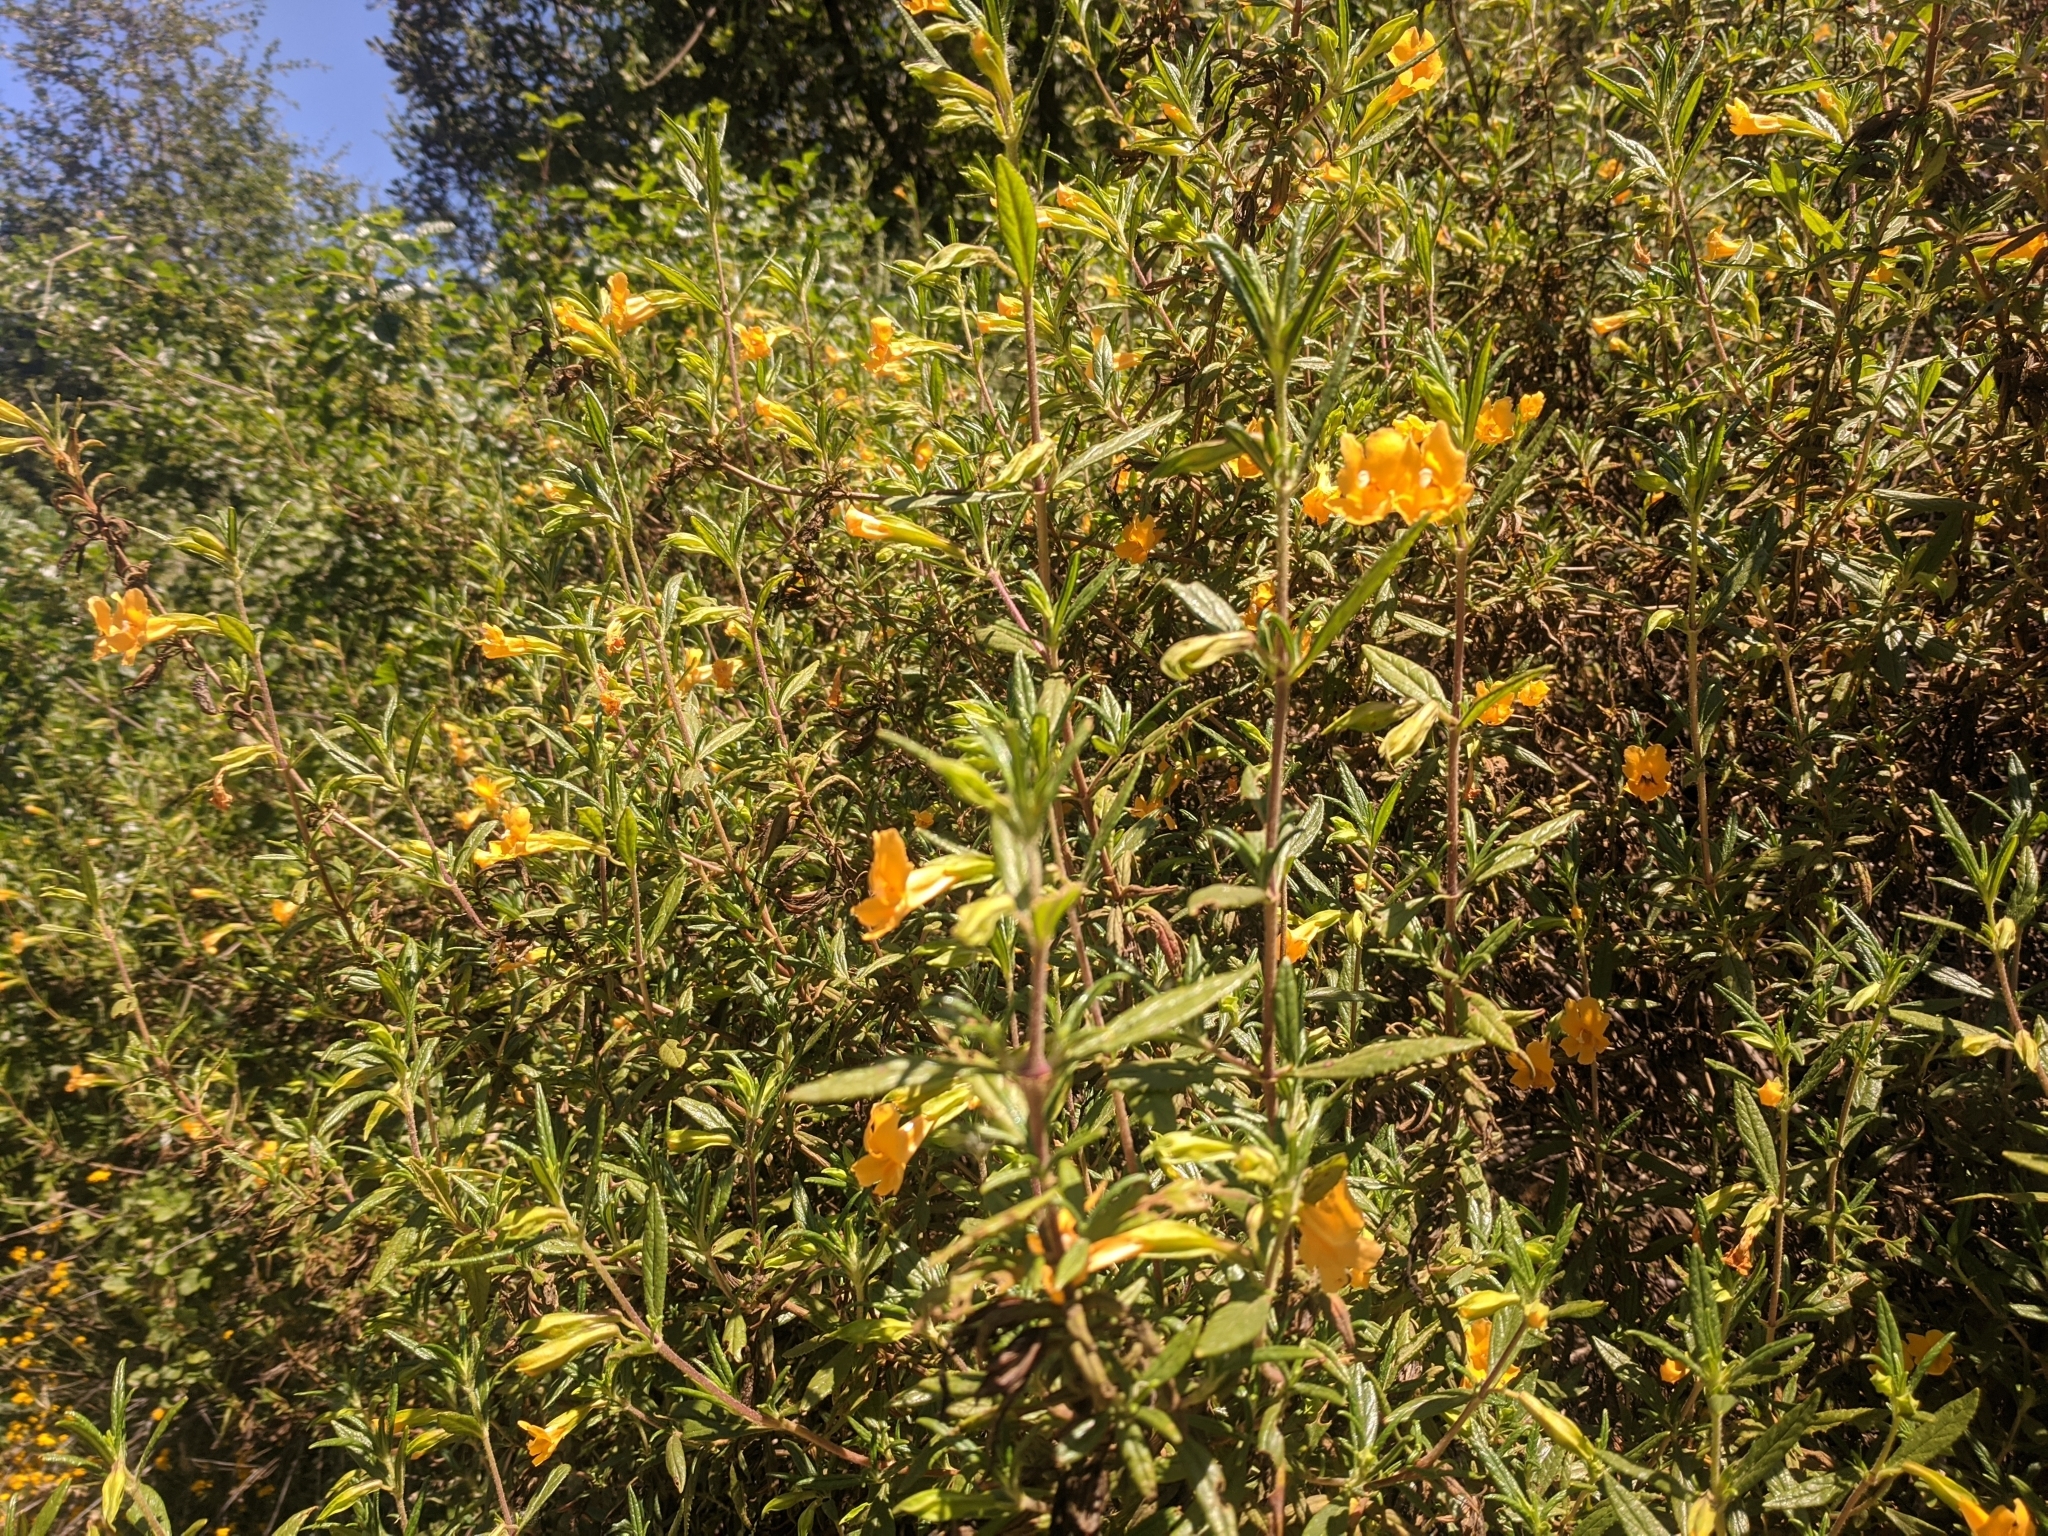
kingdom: Plantae
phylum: Tracheophyta
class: Magnoliopsida
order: Lamiales
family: Phrymaceae
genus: Diplacus
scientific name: Diplacus aurantiacus
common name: Bush monkey-flower
